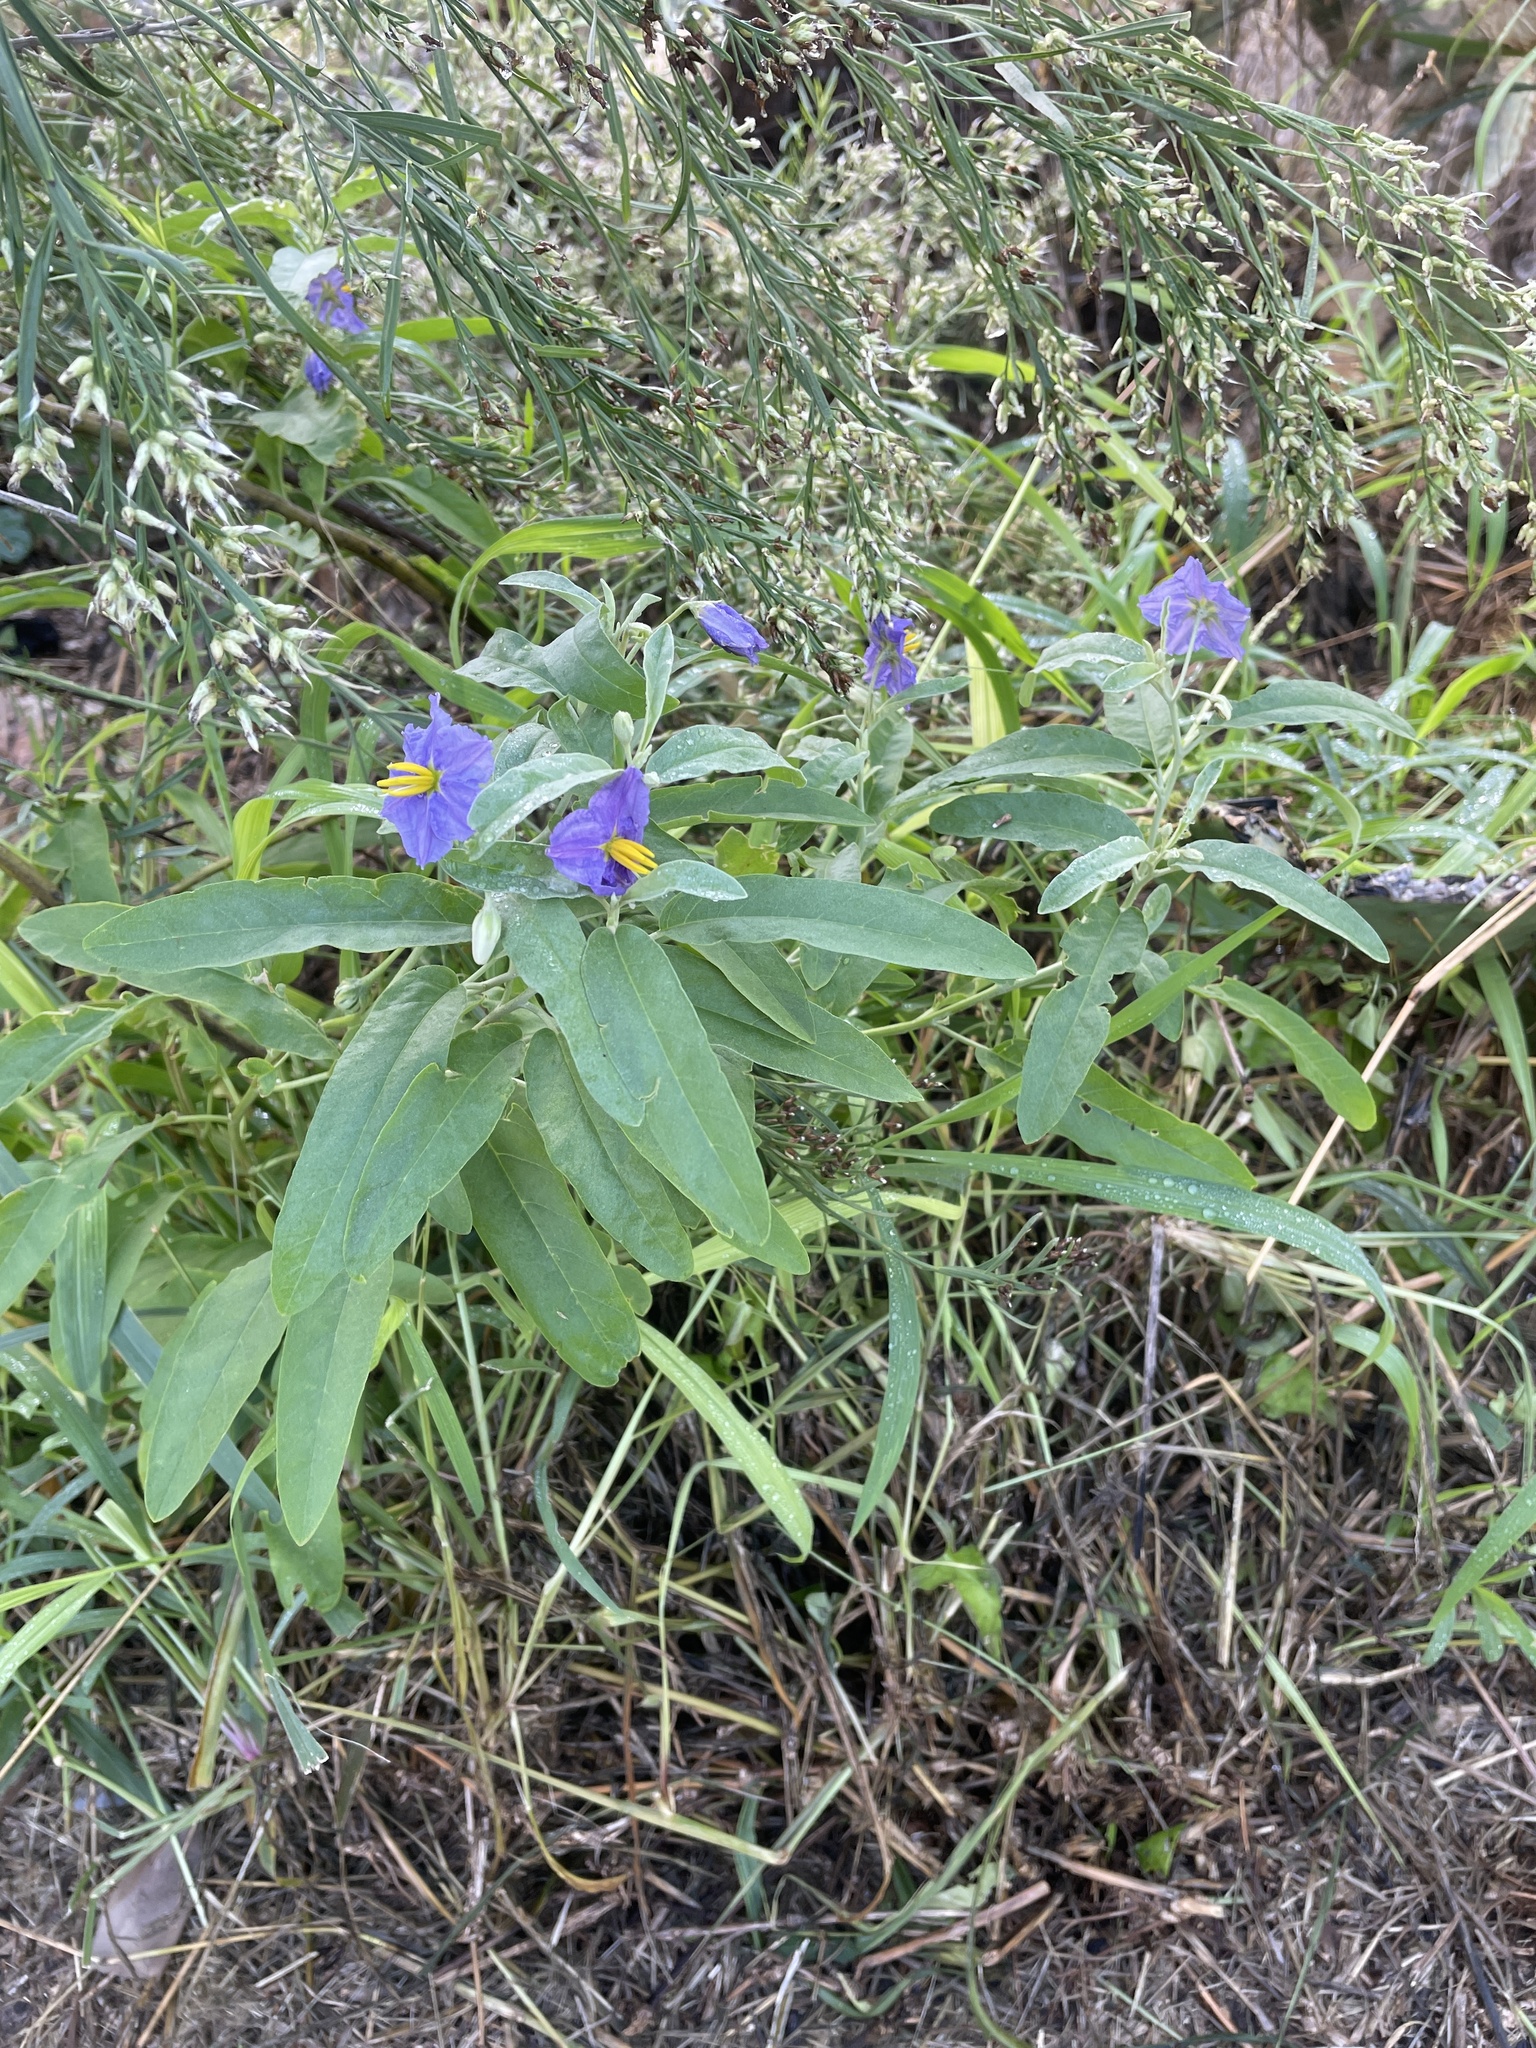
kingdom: Plantae
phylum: Tracheophyta
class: Magnoliopsida
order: Solanales
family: Solanaceae
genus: Solanum
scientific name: Solanum elaeagnifolium
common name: Silverleaf nightshade
